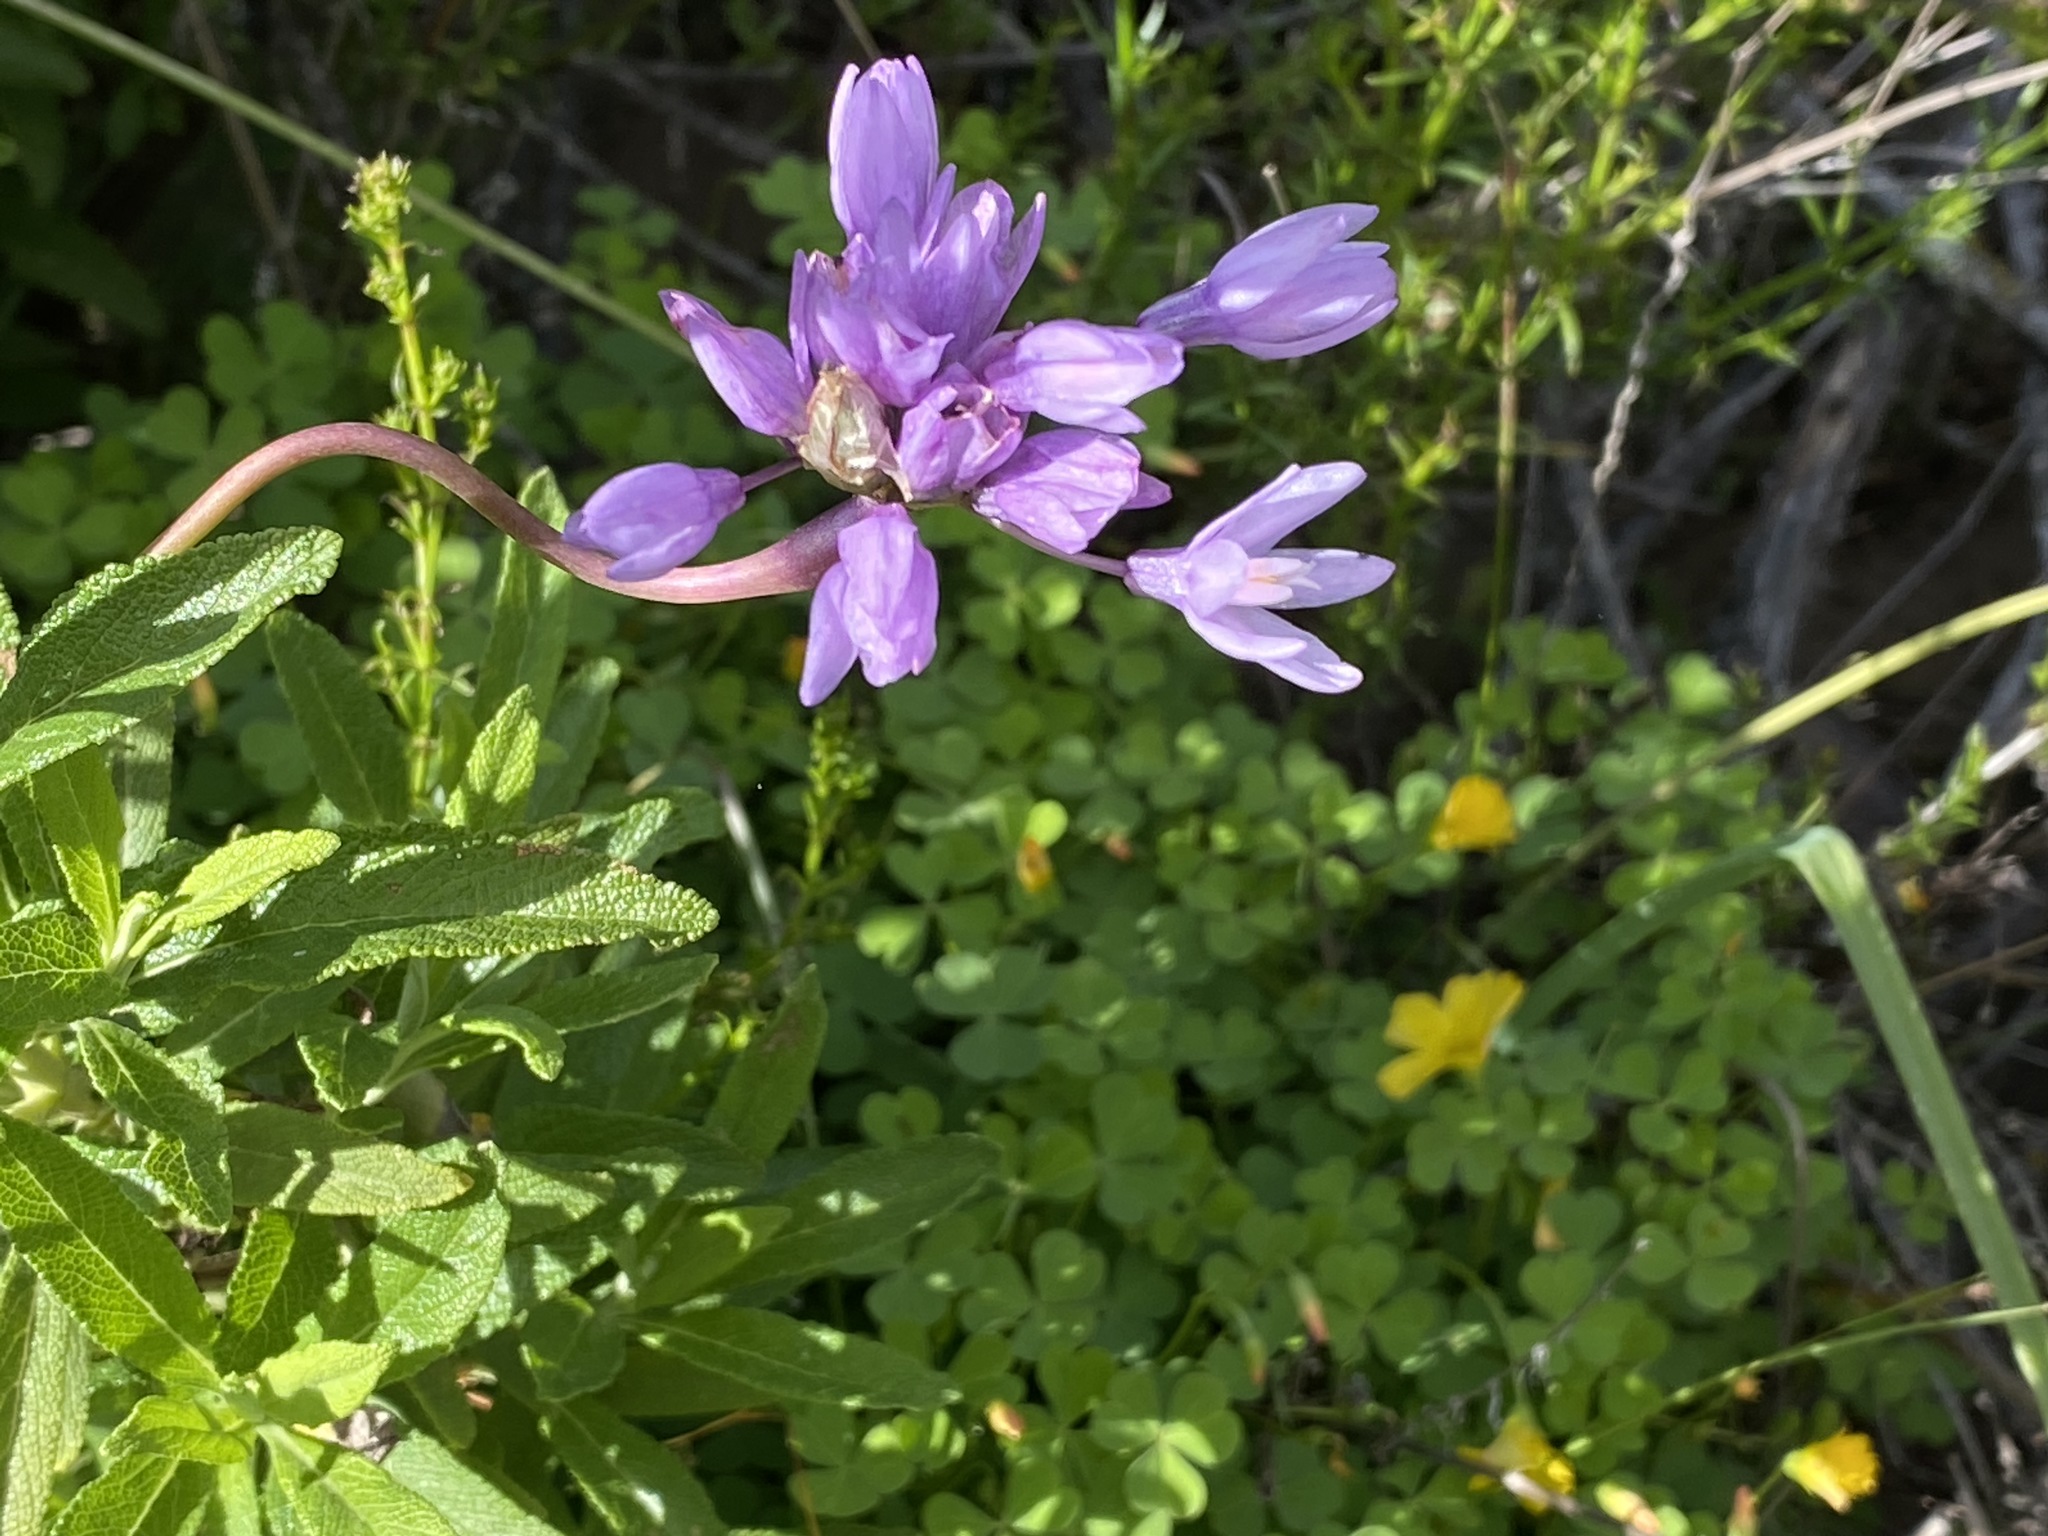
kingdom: Plantae
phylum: Tracheophyta
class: Liliopsida
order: Asparagales
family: Asparagaceae
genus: Dipterostemon
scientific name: Dipterostemon capitatus
